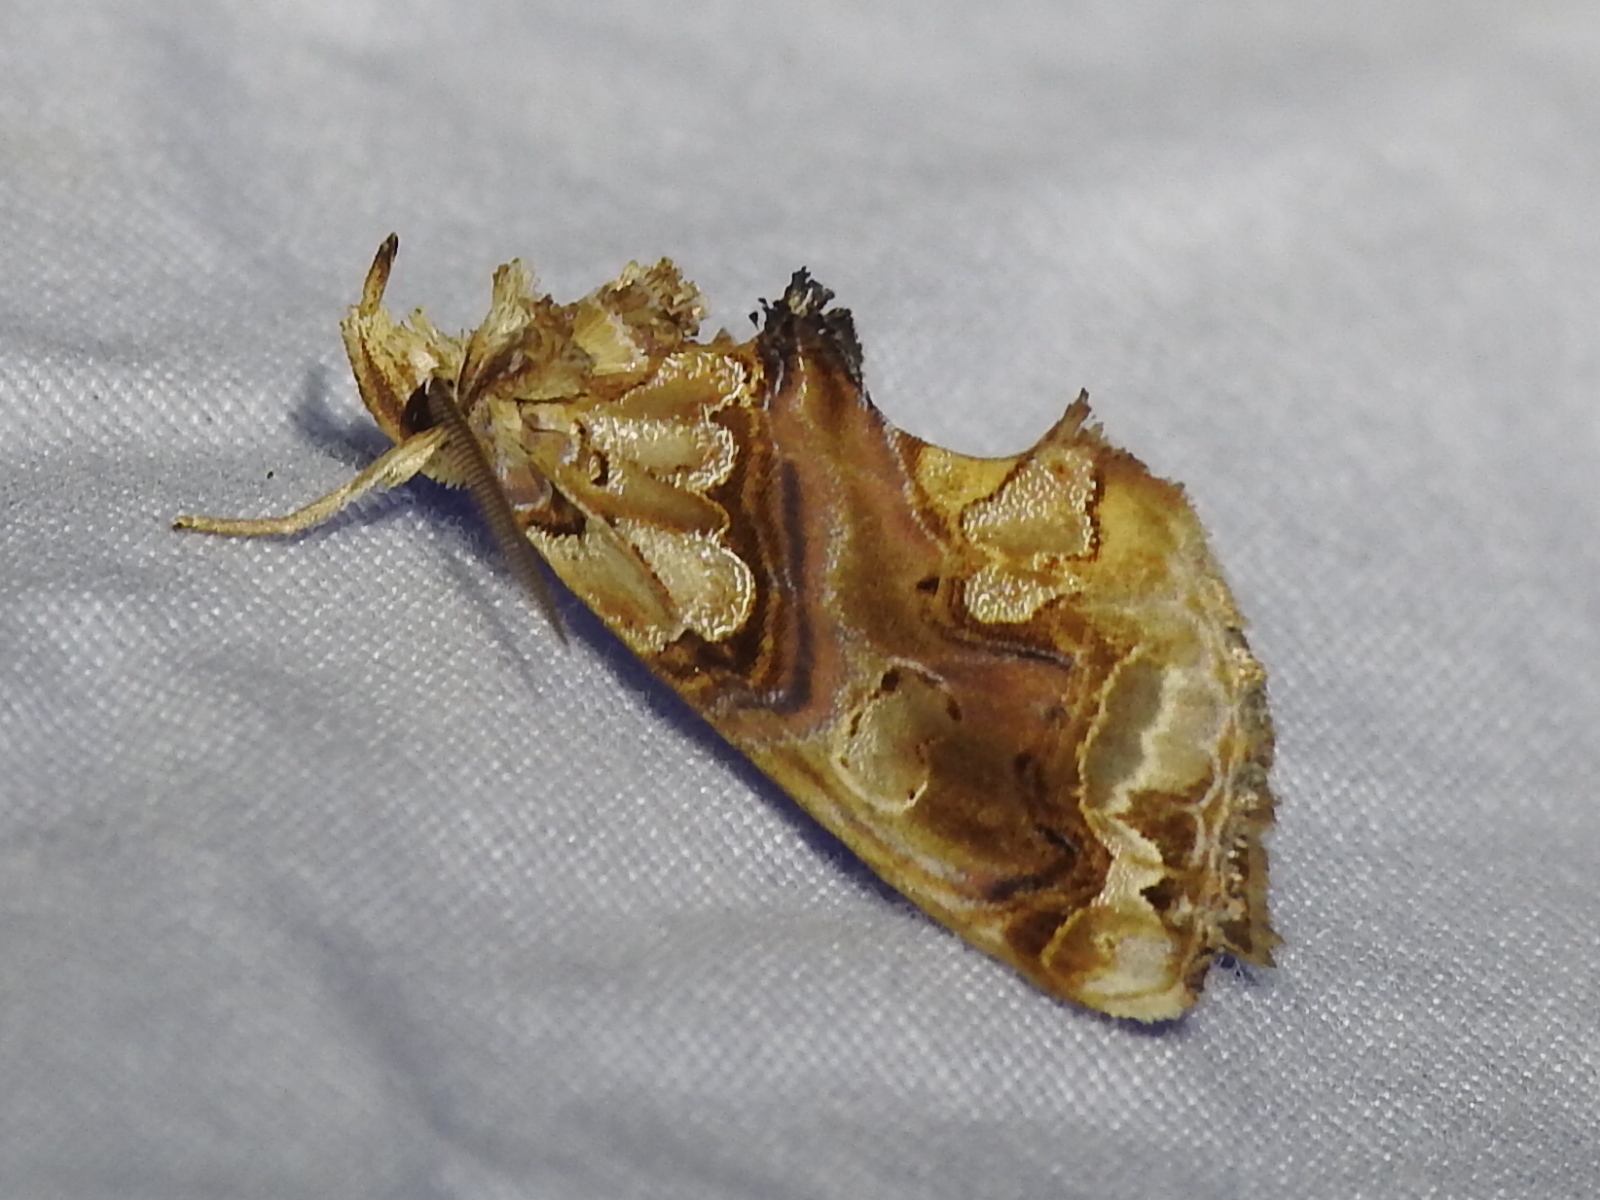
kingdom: Animalia
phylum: Arthropoda
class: Insecta
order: Lepidoptera
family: Erebidae
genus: Plusiodonta
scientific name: Plusiodonta compressipalpis
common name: Moonseed moth
